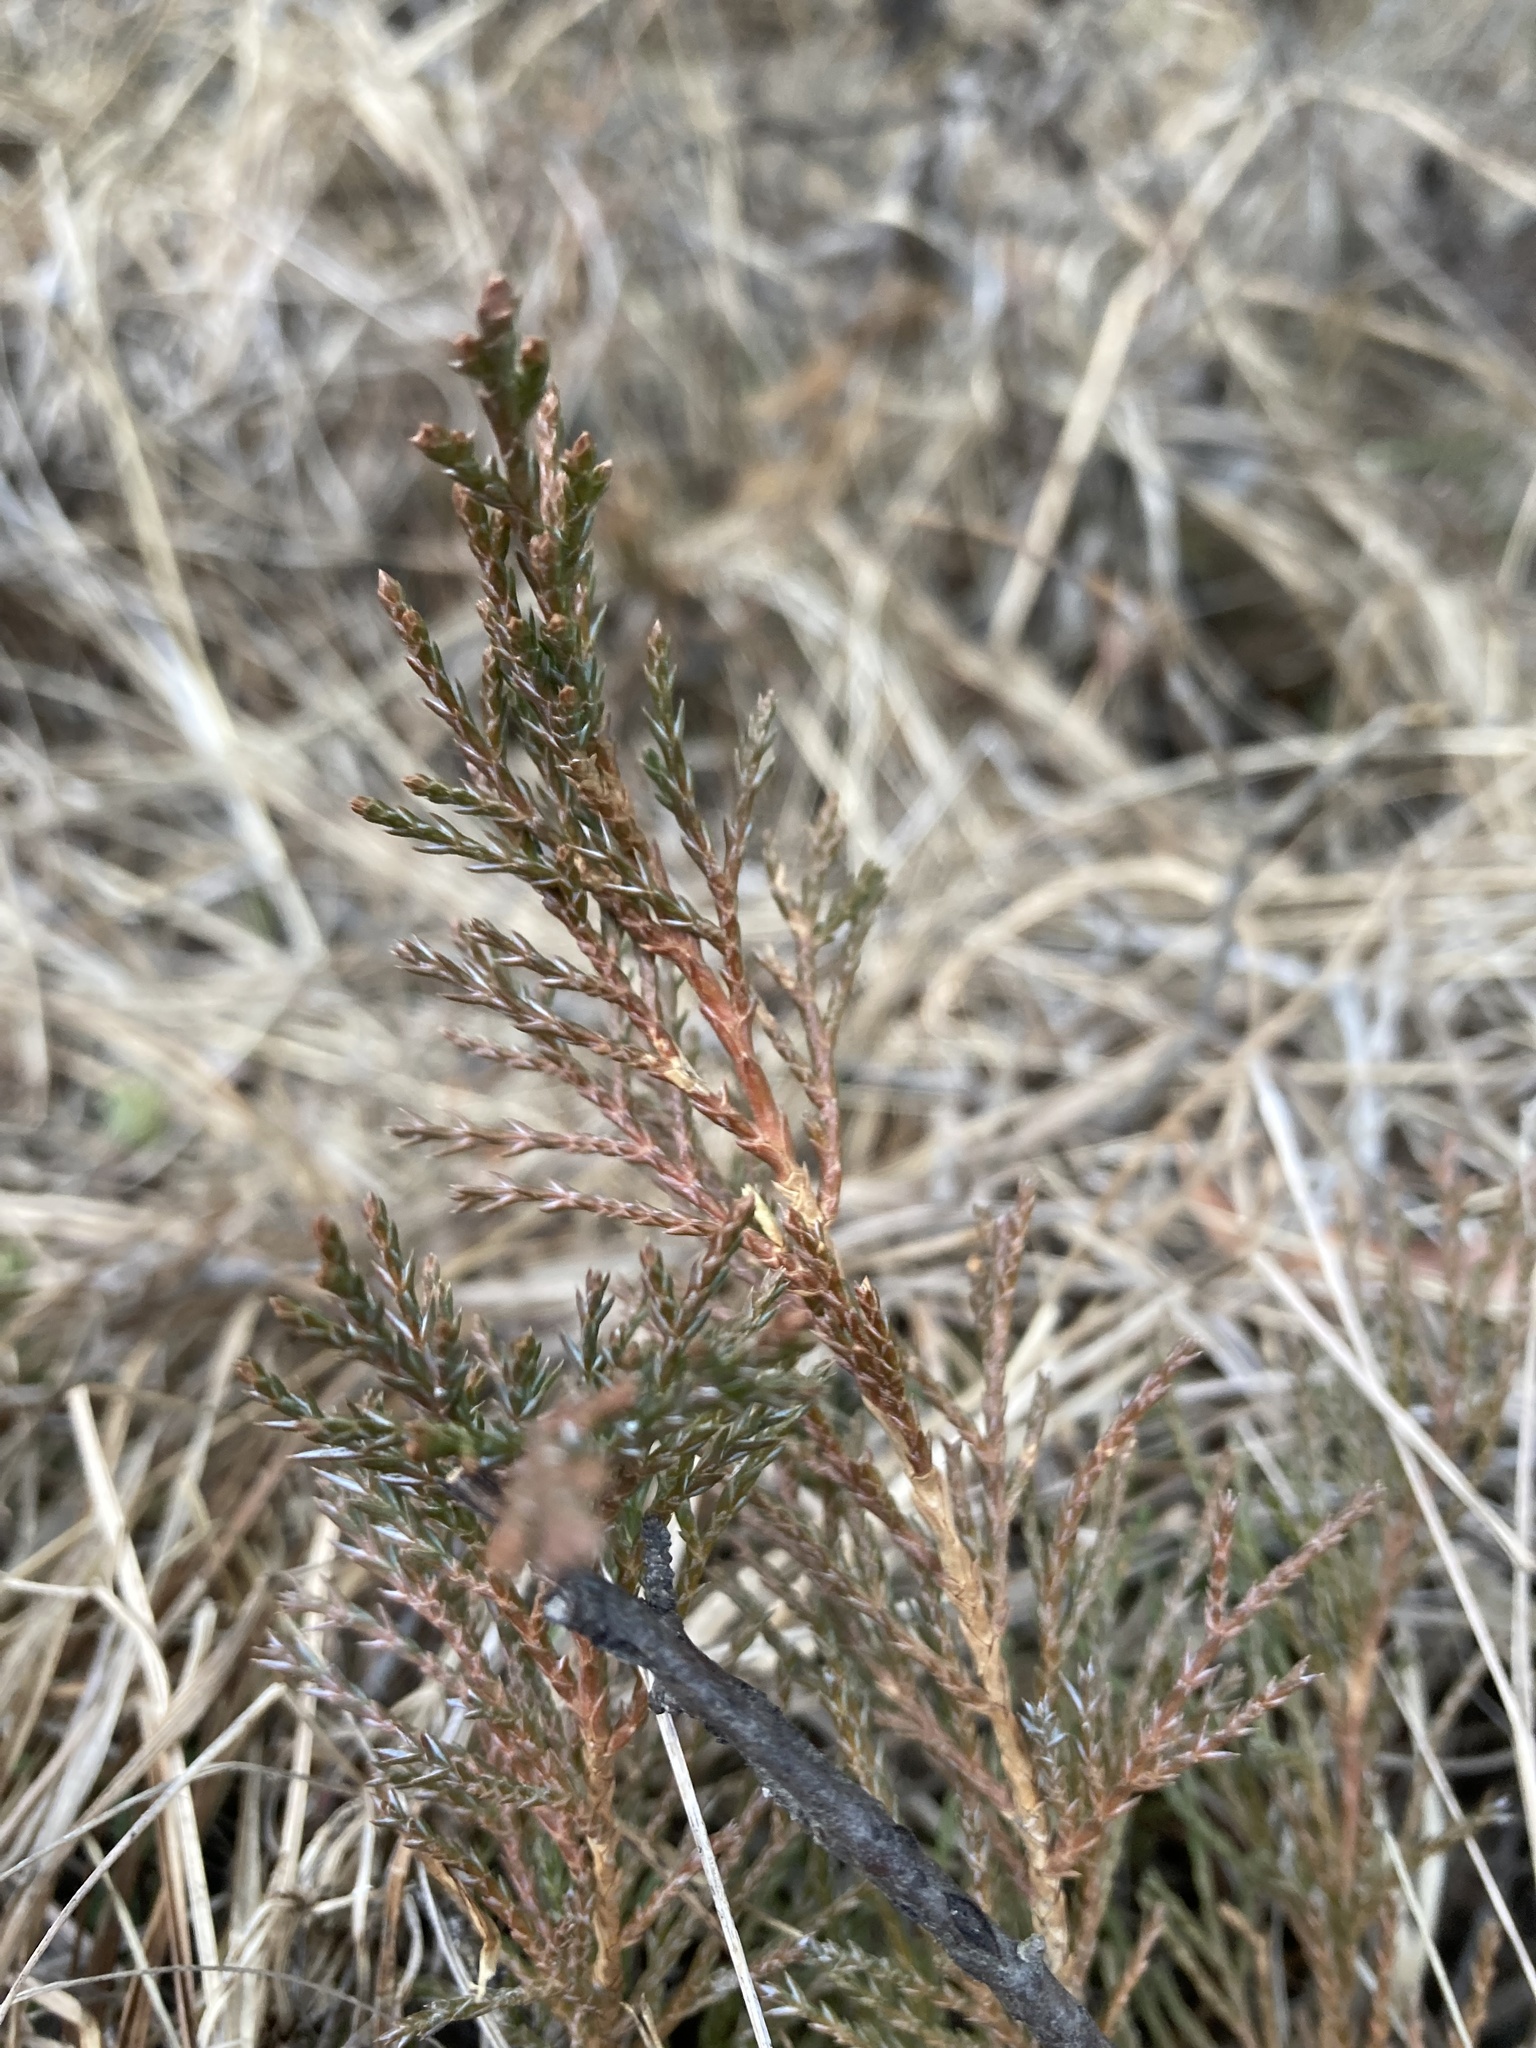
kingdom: Plantae
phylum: Tracheophyta
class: Pinopsida
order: Pinales
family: Cupressaceae
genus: Juniperus
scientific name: Juniperus horizontalis
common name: Creeping juniper
